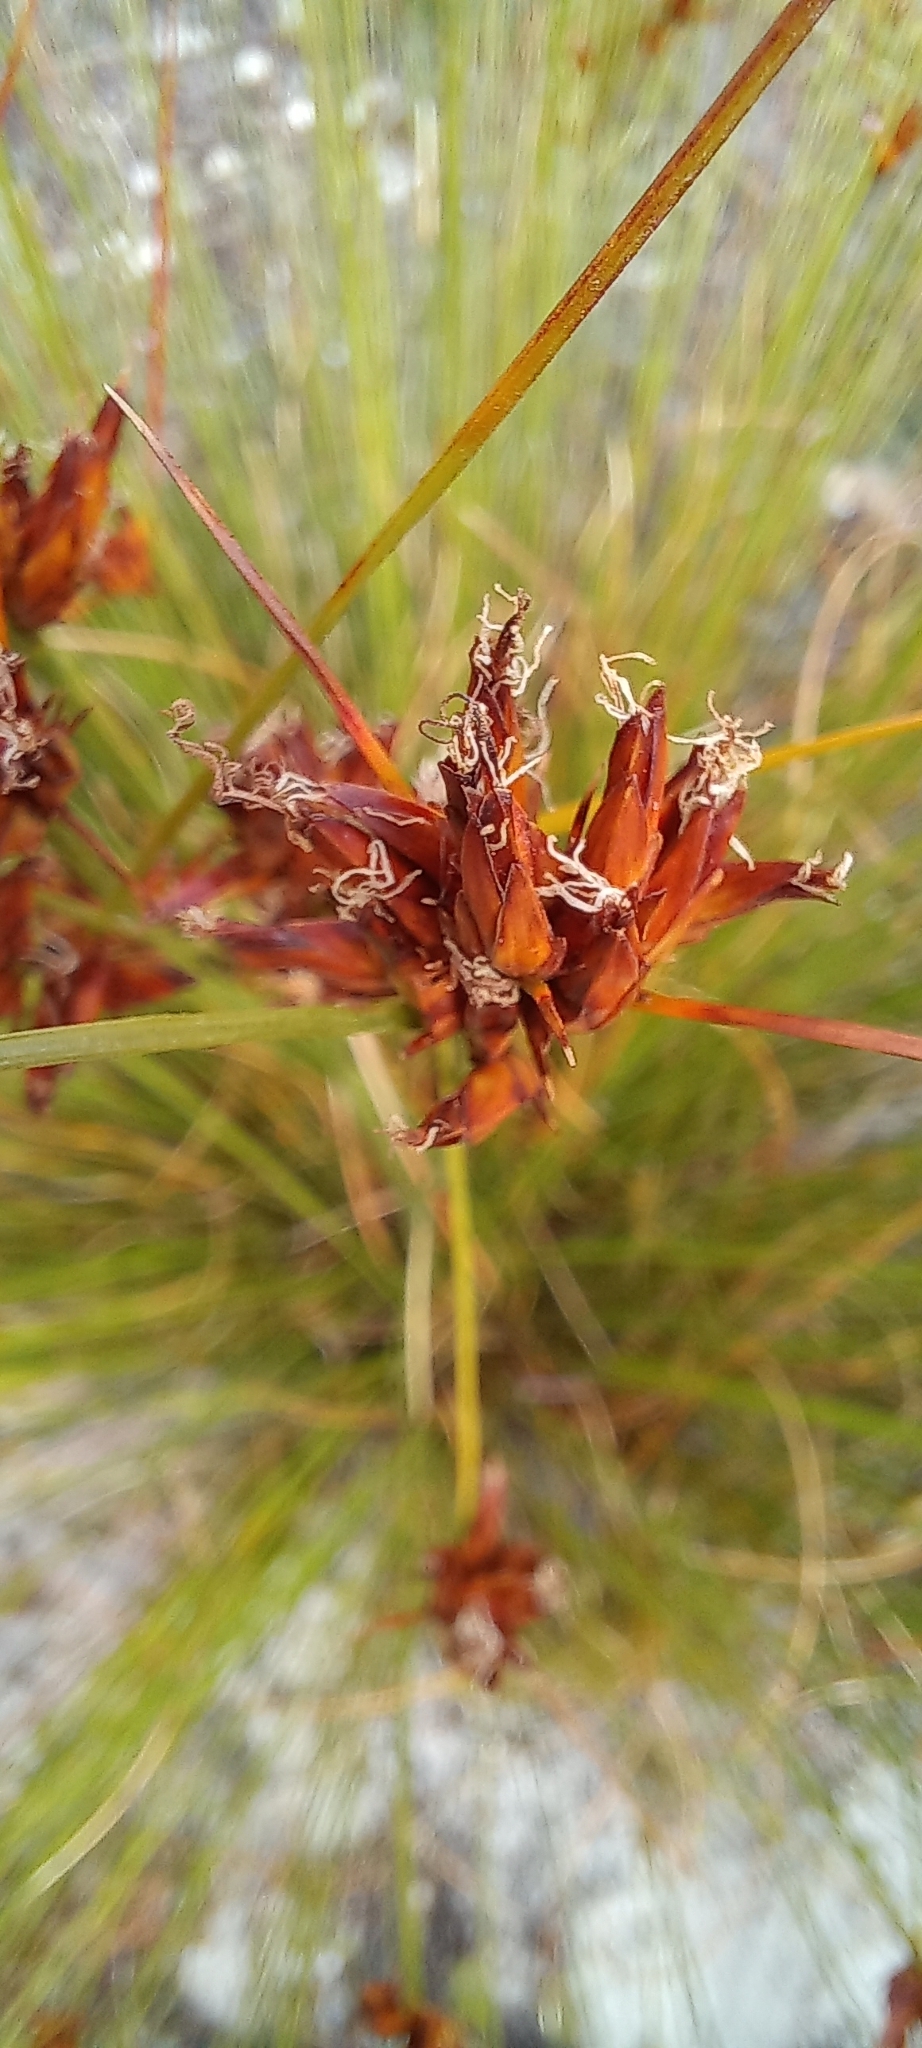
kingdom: Plantae
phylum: Tracheophyta
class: Liliopsida
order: Poales
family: Cyperaceae
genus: Schoenus
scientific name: Schoenus compar
